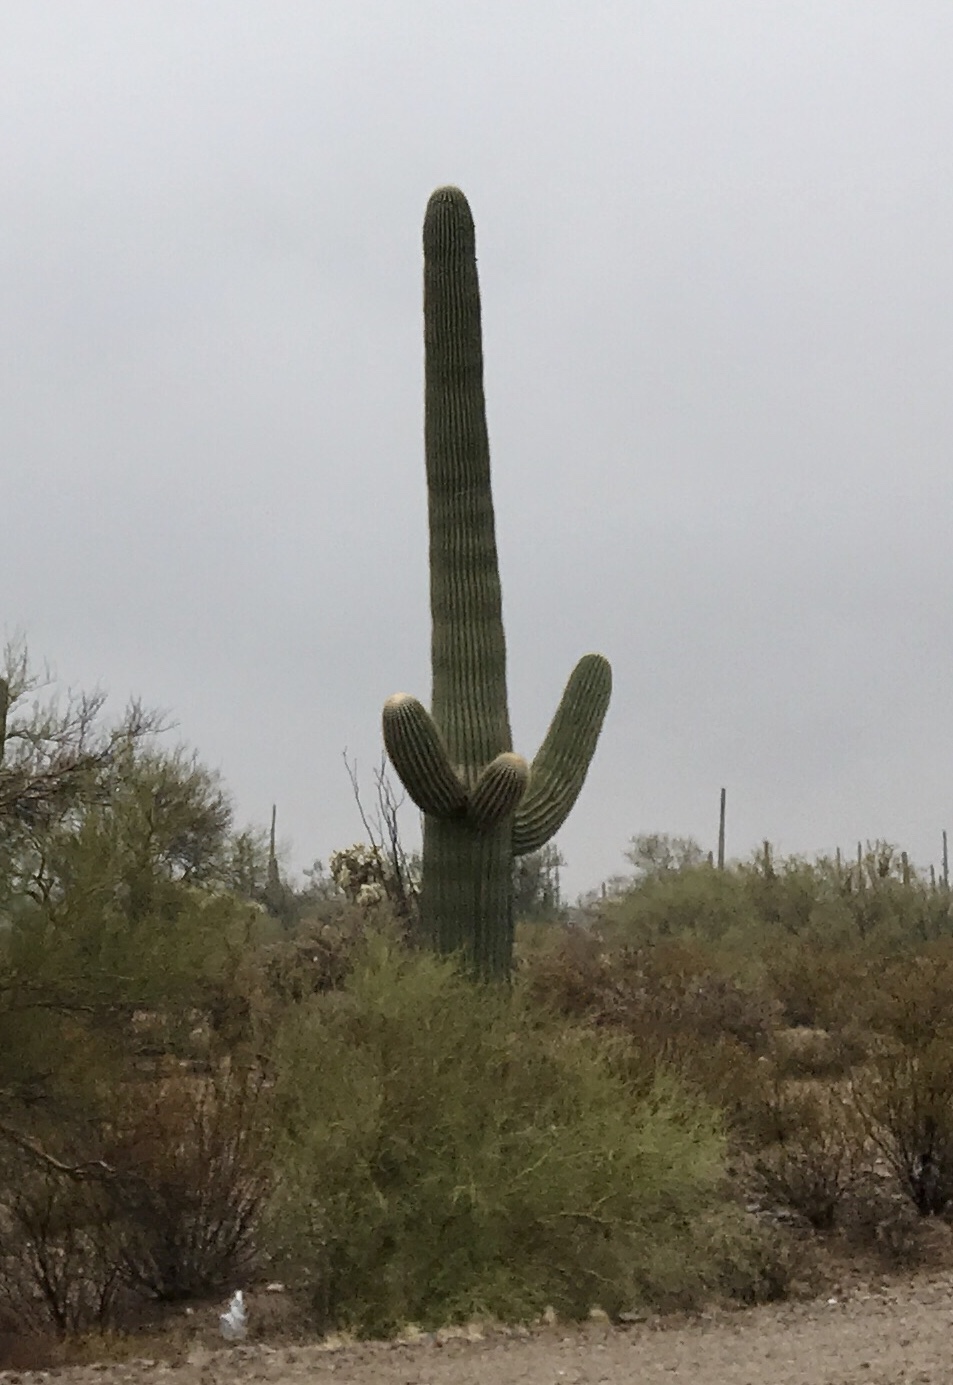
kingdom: Plantae
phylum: Tracheophyta
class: Magnoliopsida
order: Caryophyllales
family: Cactaceae
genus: Carnegiea
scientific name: Carnegiea gigantea
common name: Saguaro
